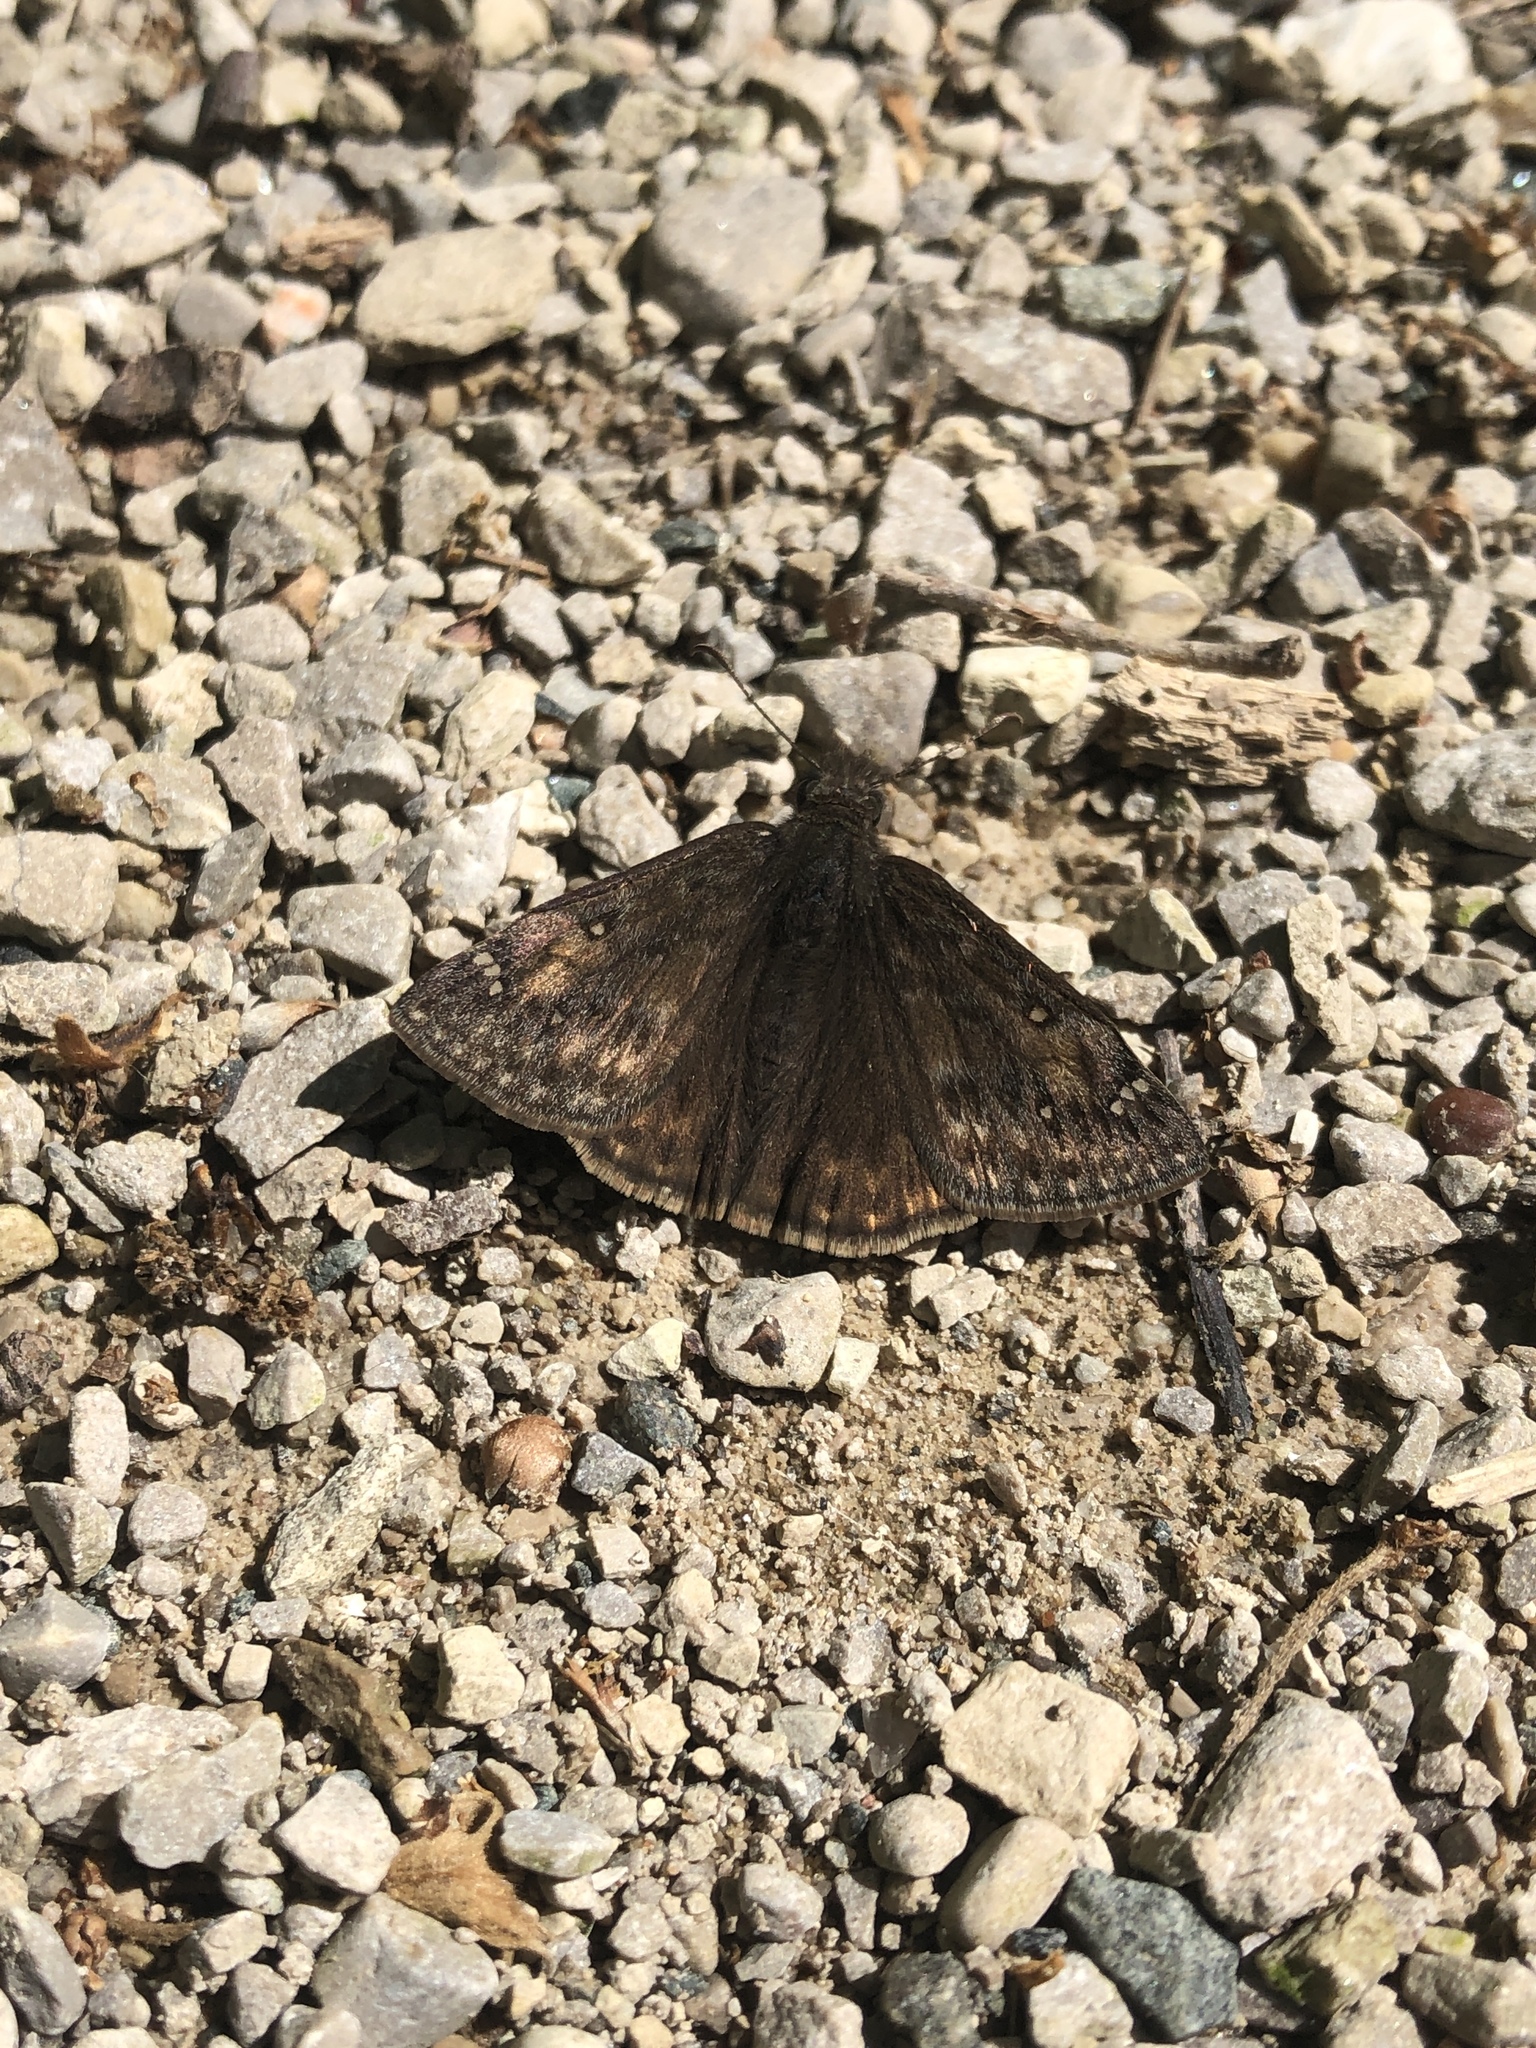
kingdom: Animalia
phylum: Arthropoda
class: Insecta
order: Lepidoptera
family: Hesperiidae
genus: Erynnis
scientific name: Erynnis juvenalis
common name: Juvenal's duskywing
